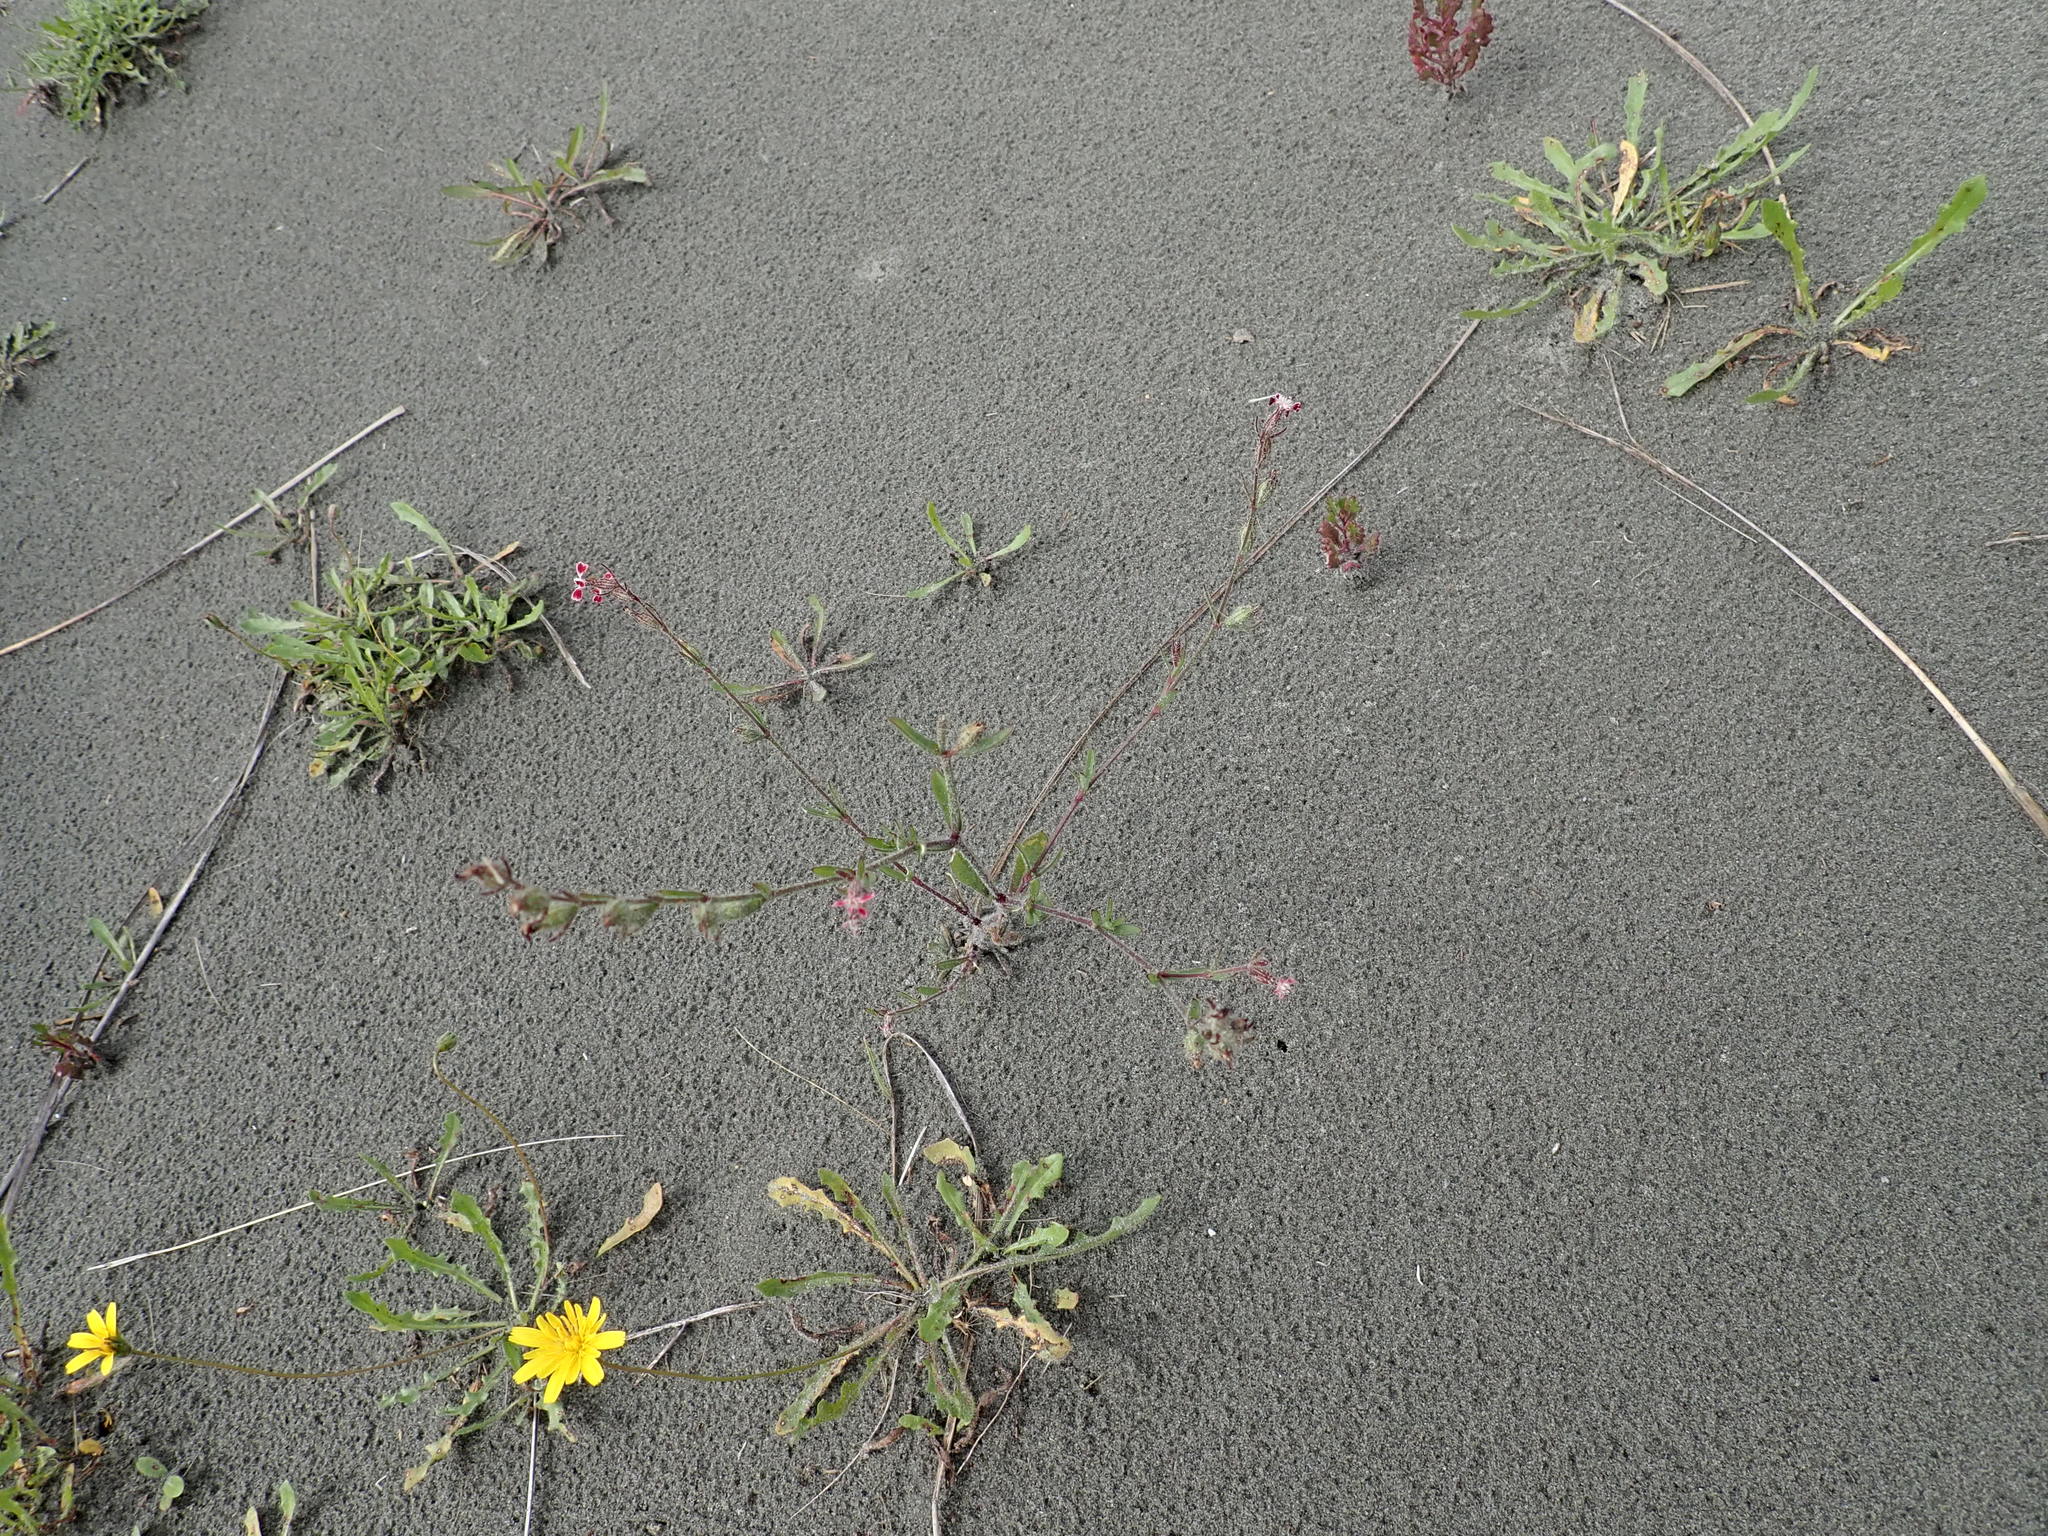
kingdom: Plantae
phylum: Tracheophyta
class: Magnoliopsida
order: Caryophyllales
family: Caryophyllaceae
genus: Silene
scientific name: Silene gallica
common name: Small-flowered catchfly
